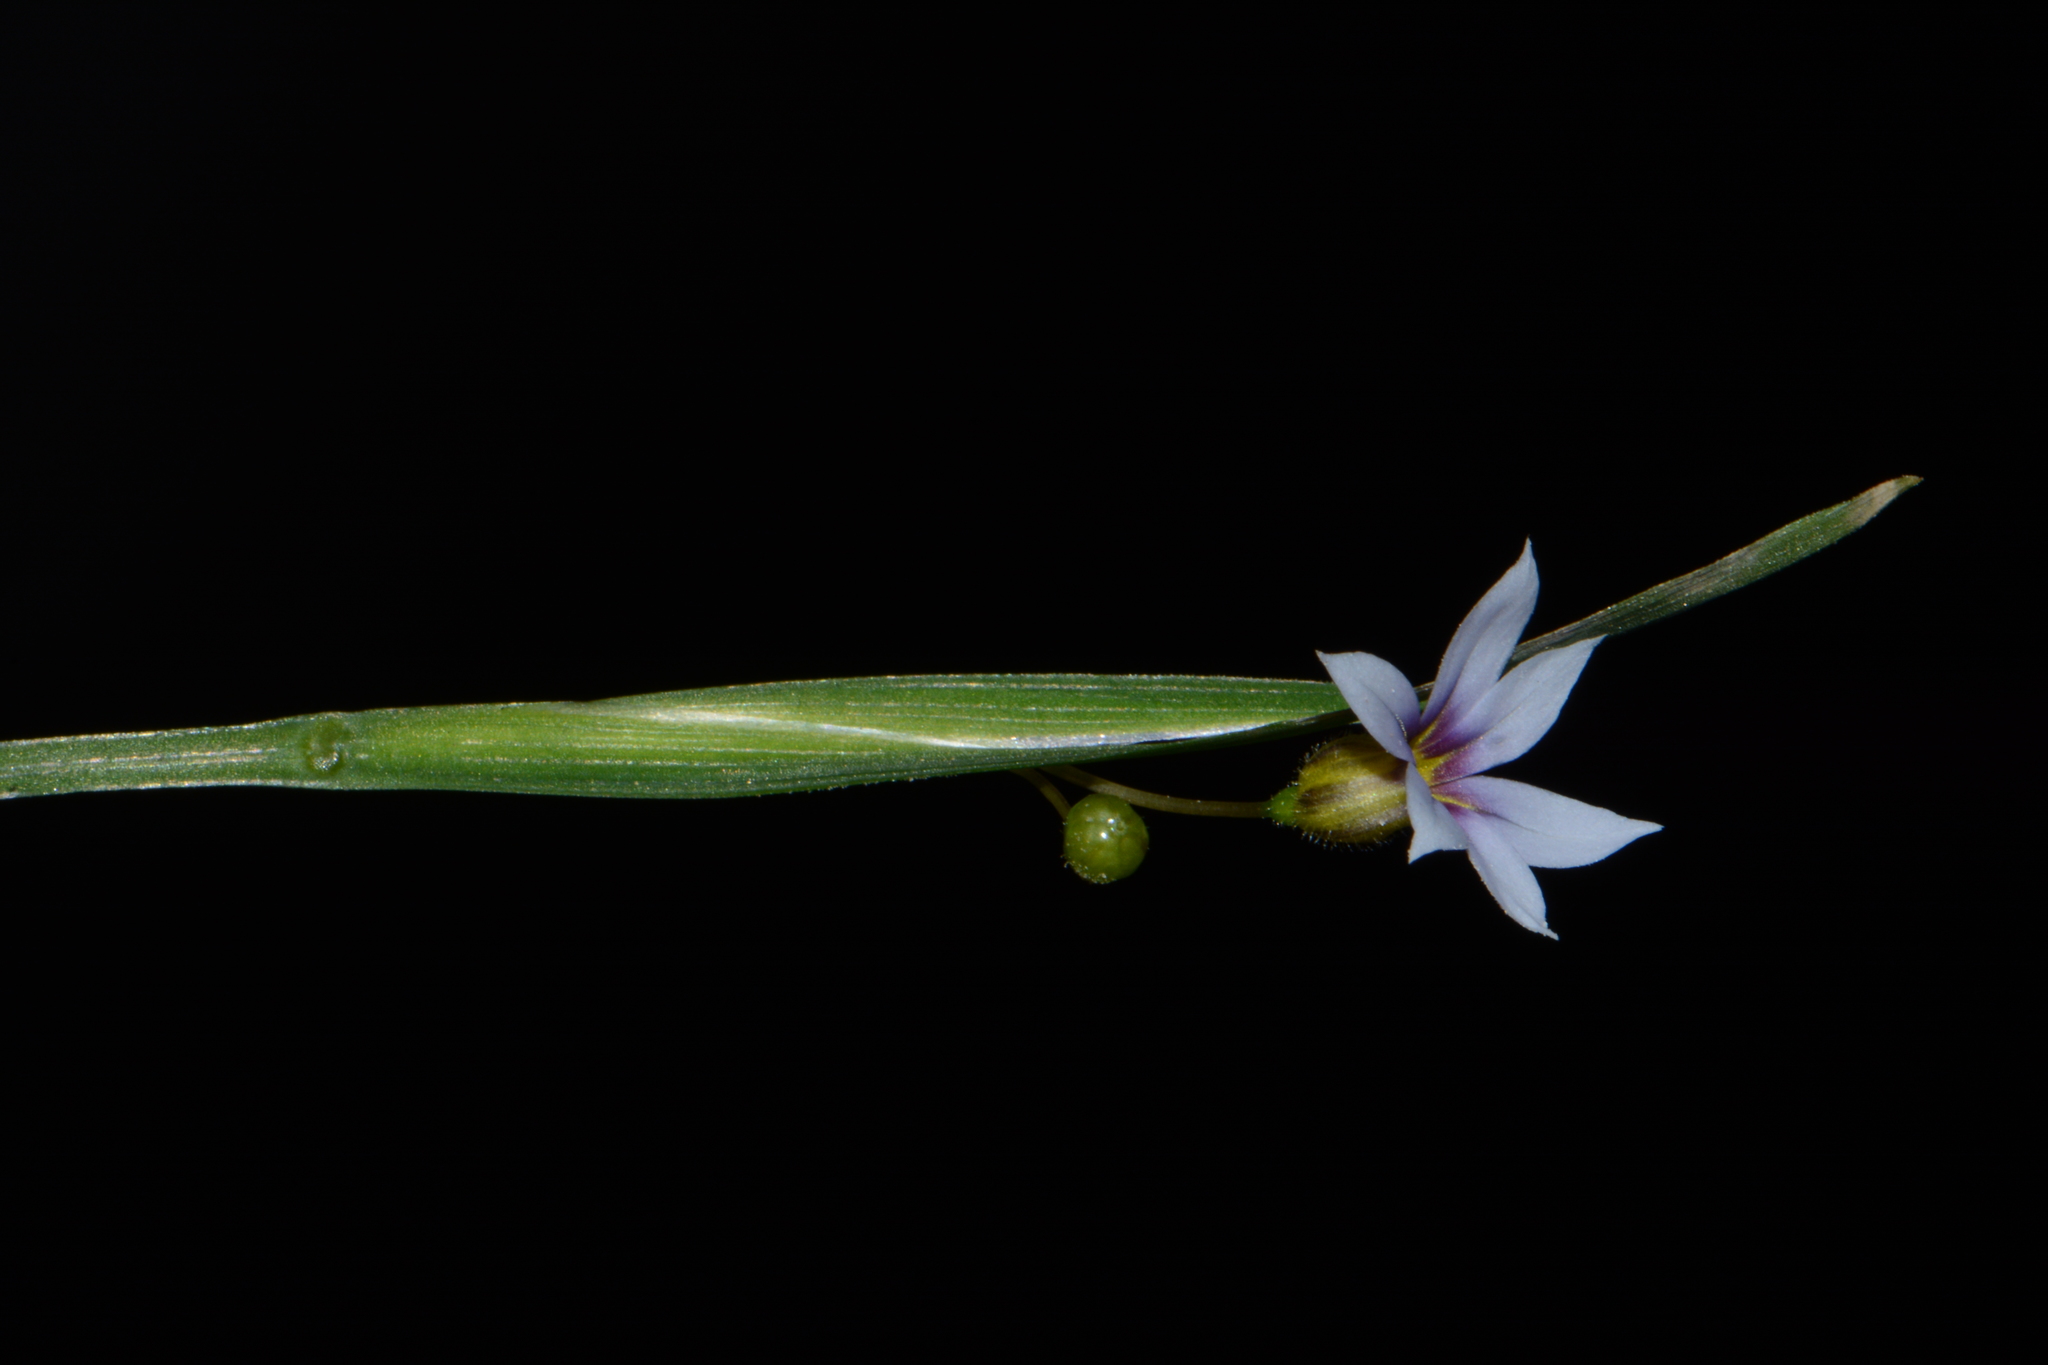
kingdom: Plantae
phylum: Tracheophyta
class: Liliopsida
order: Asparagales
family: Iridaceae
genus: Sisyrinchium
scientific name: Sisyrinchium micranthum
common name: Bermuda pigroot
